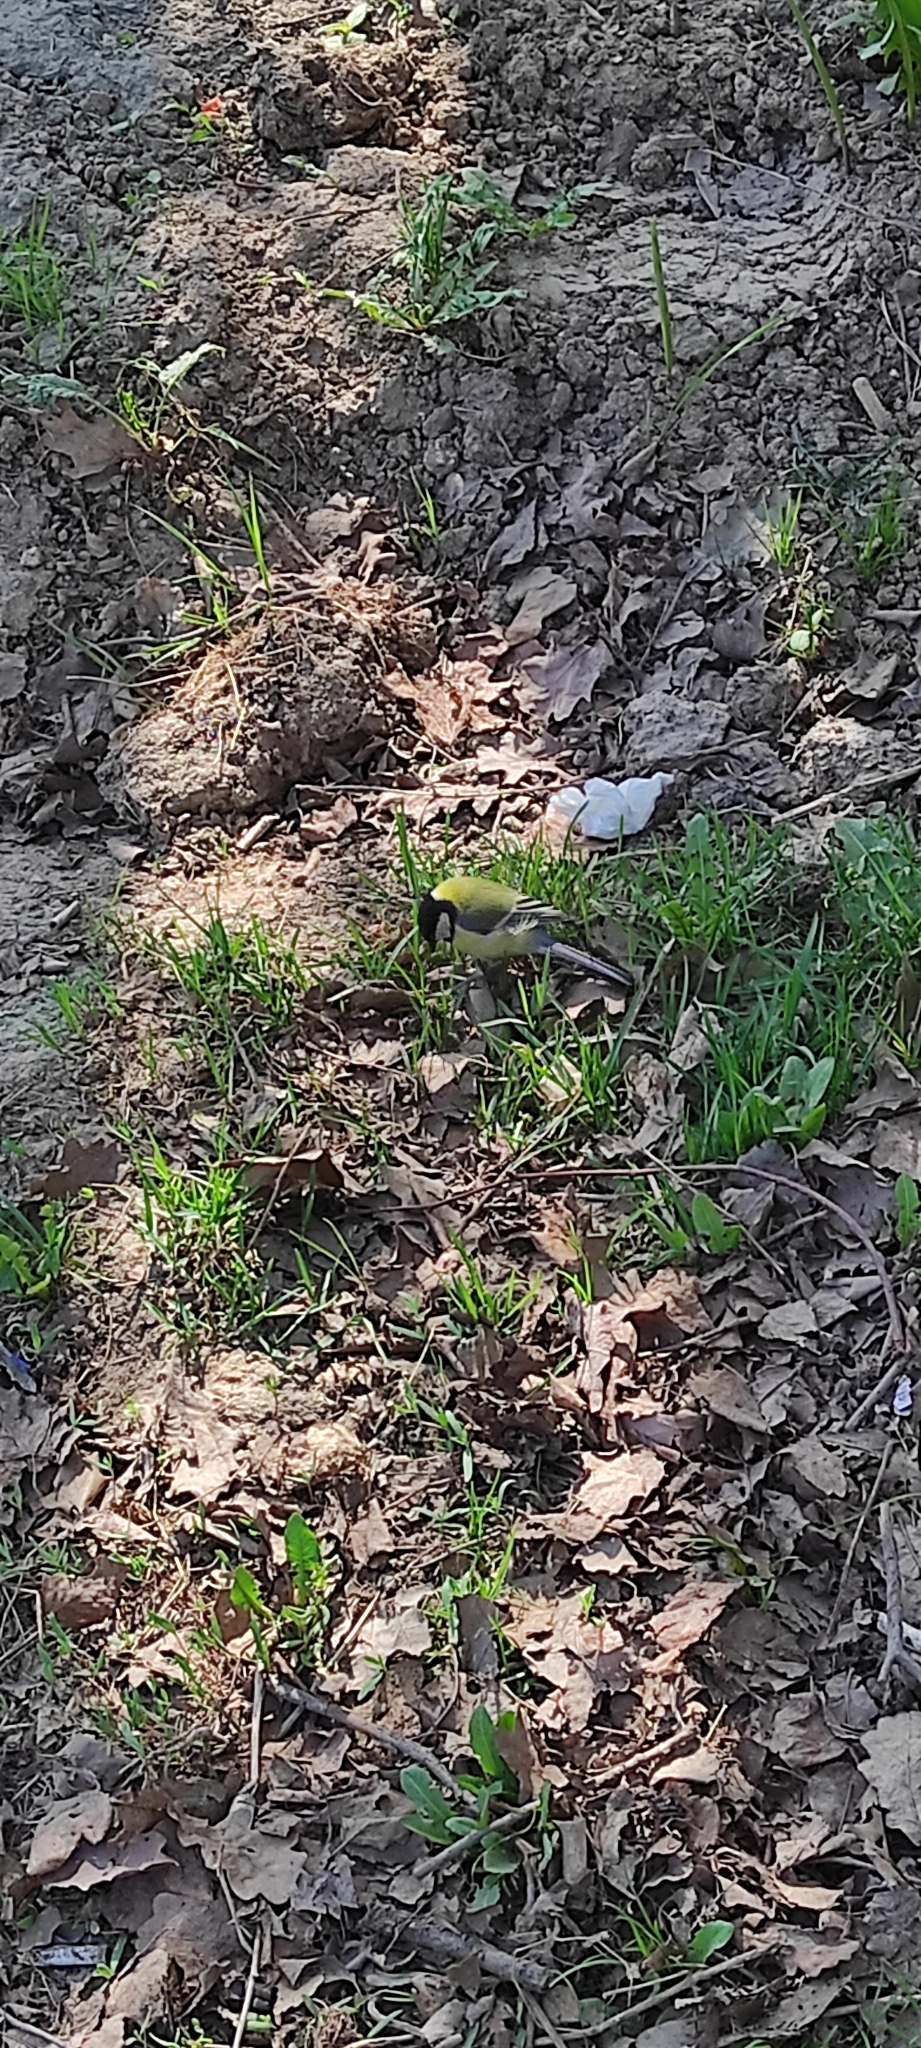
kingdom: Animalia
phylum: Chordata
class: Aves
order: Passeriformes
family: Paridae
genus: Parus
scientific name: Parus major
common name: Great tit
